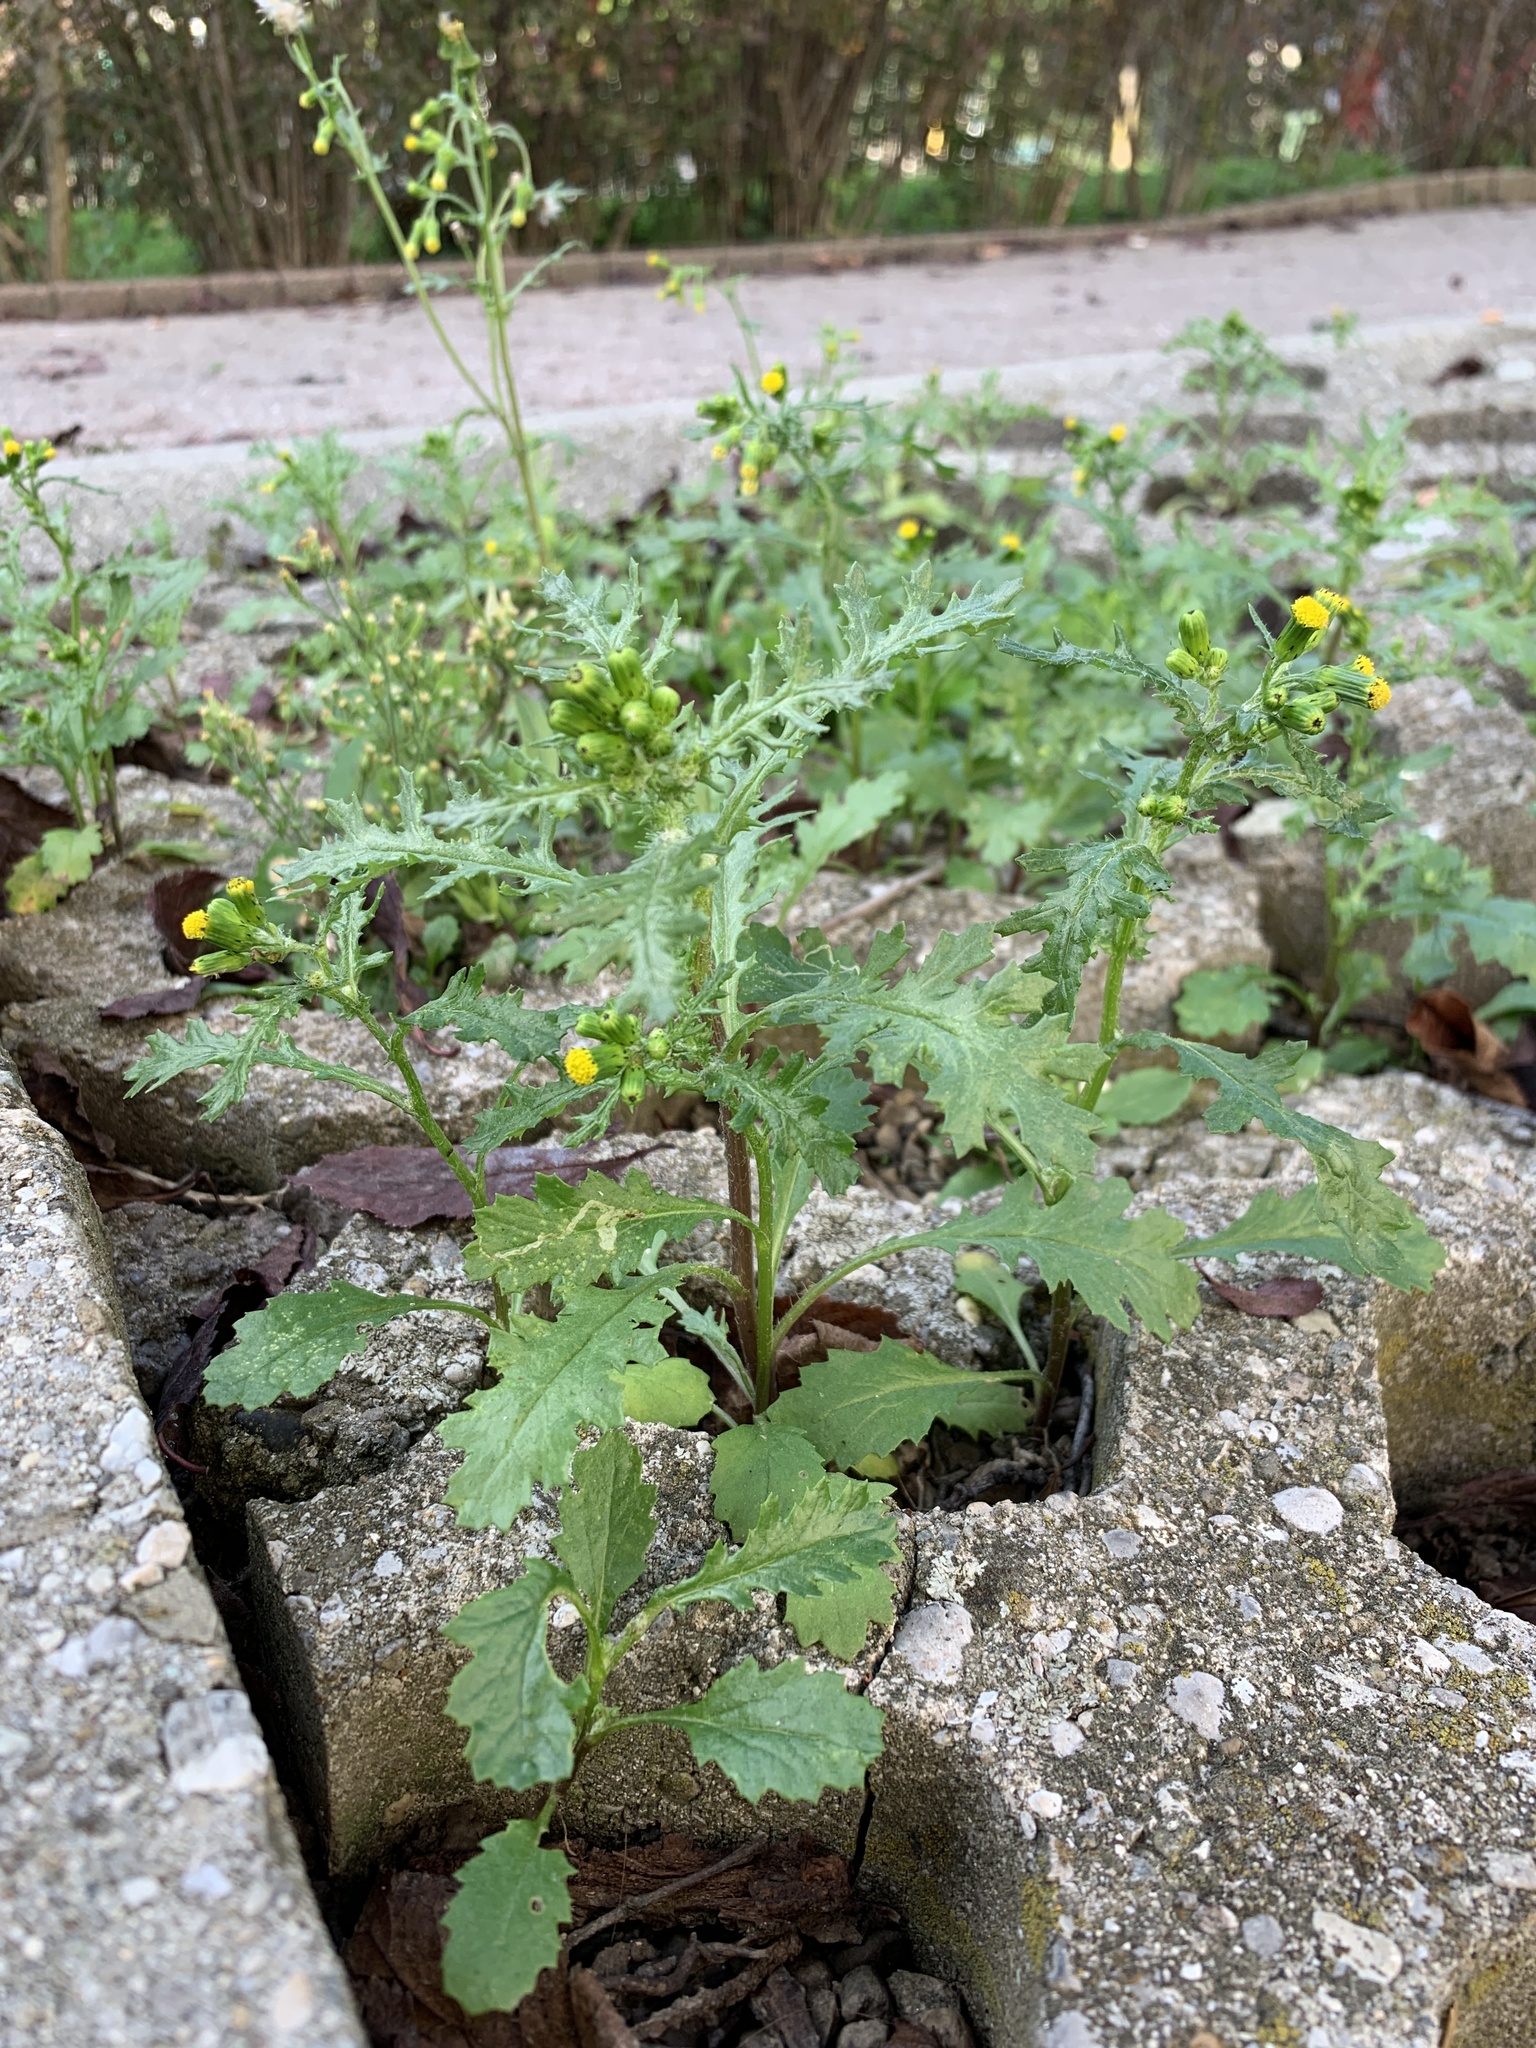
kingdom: Plantae
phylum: Tracheophyta
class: Magnoliopsida
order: Asterales
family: Asteraceae
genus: Senecio
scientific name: Senecio vulgaris
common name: Old-man-in-the-spring
